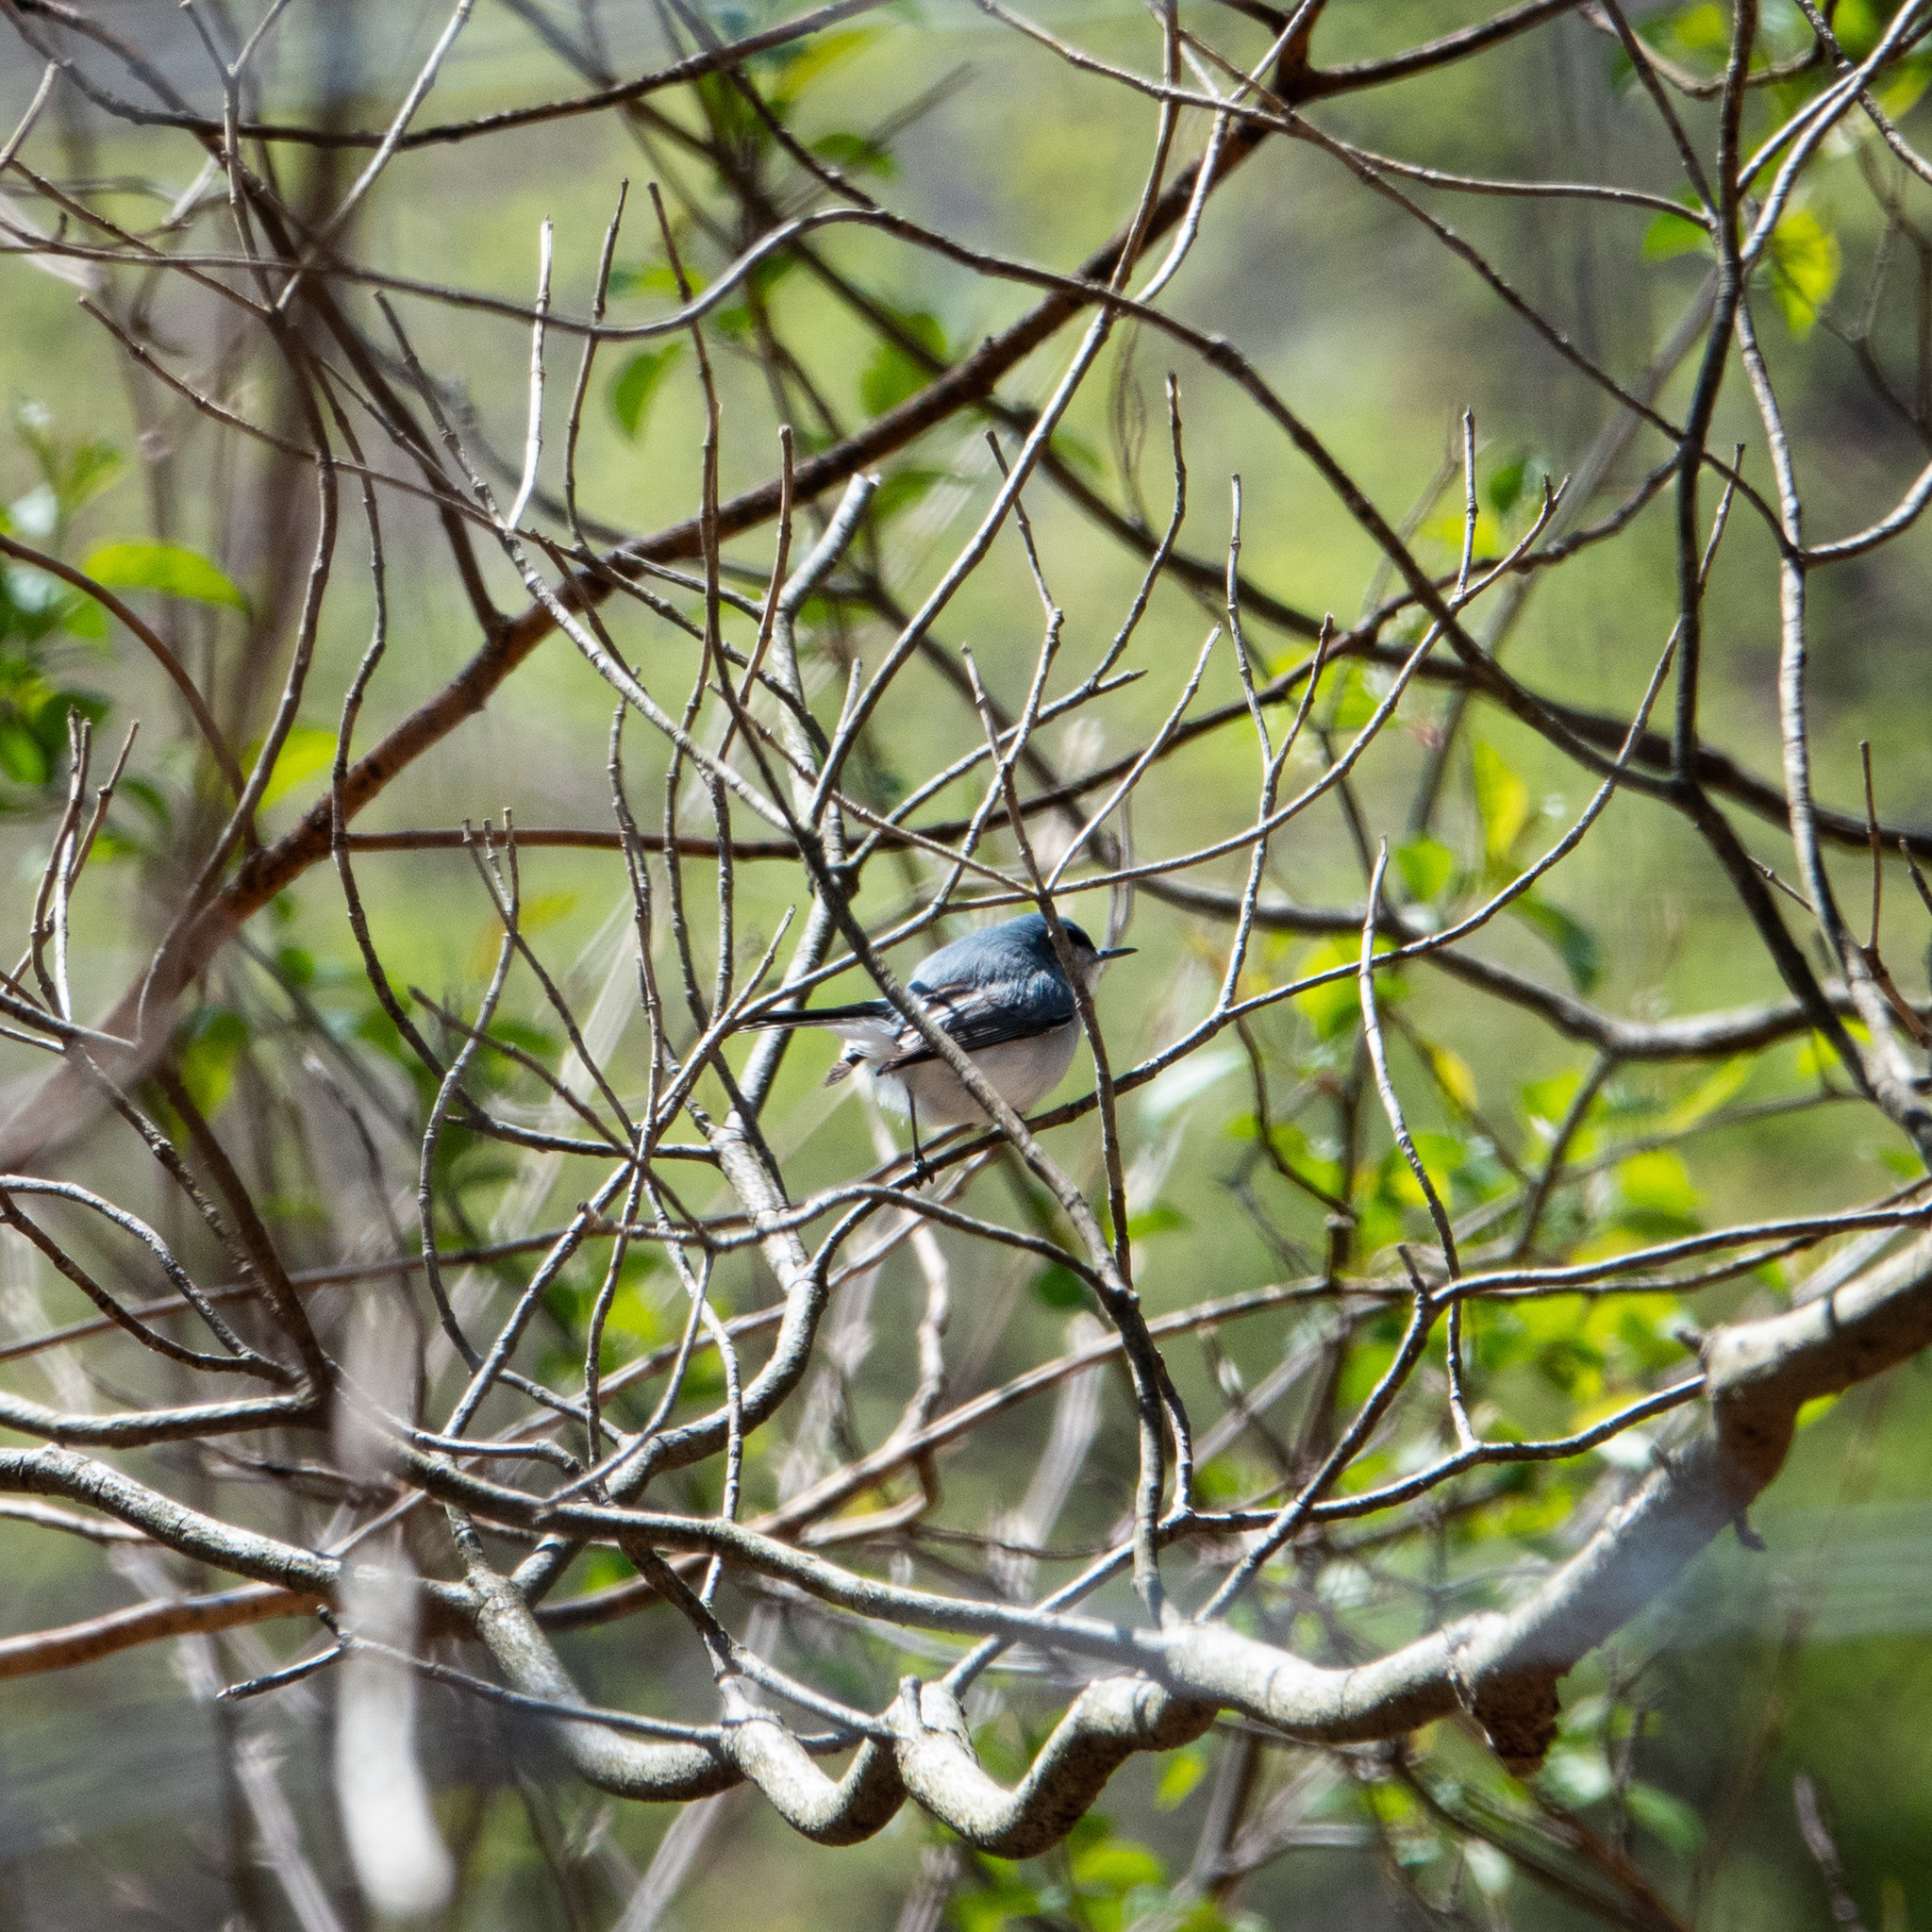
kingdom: Animalia
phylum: Chordata
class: Aves
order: Passeriformes
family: Polioptilidae
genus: Polioptila
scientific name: Polioptila caerulea
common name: Blue-gray gnatcatcher
